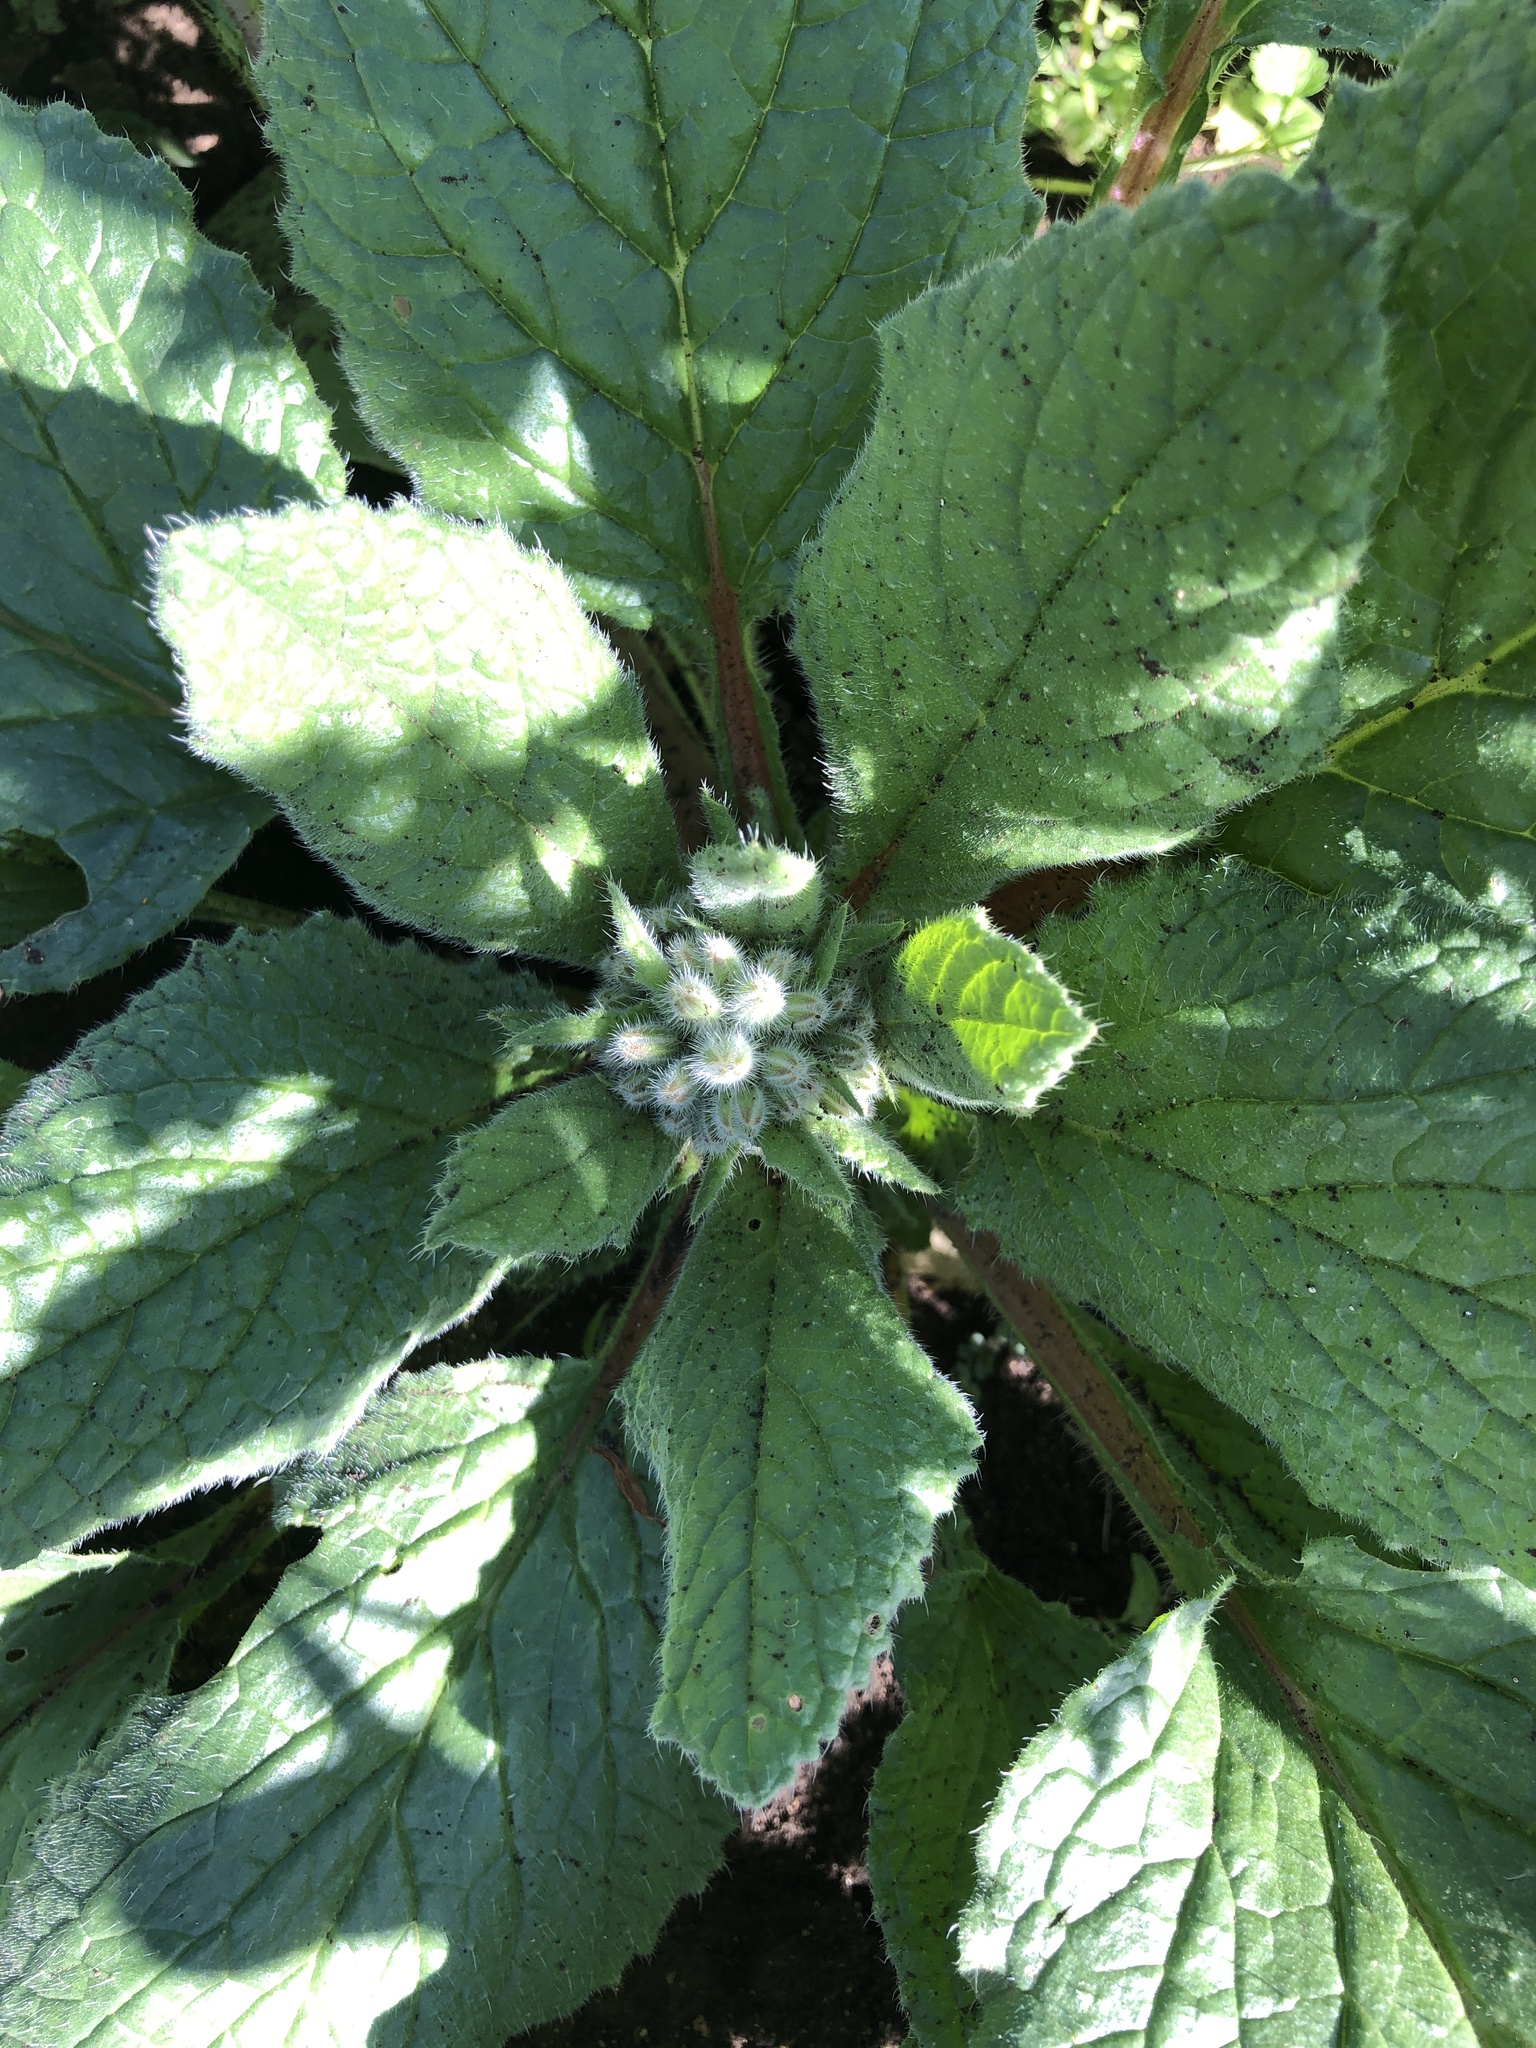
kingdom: Plantae
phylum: Tracheophyta
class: Magnoliopsida
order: Boraginales
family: Boraginaceae
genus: Borago
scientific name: Borago officinalis
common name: Borage
